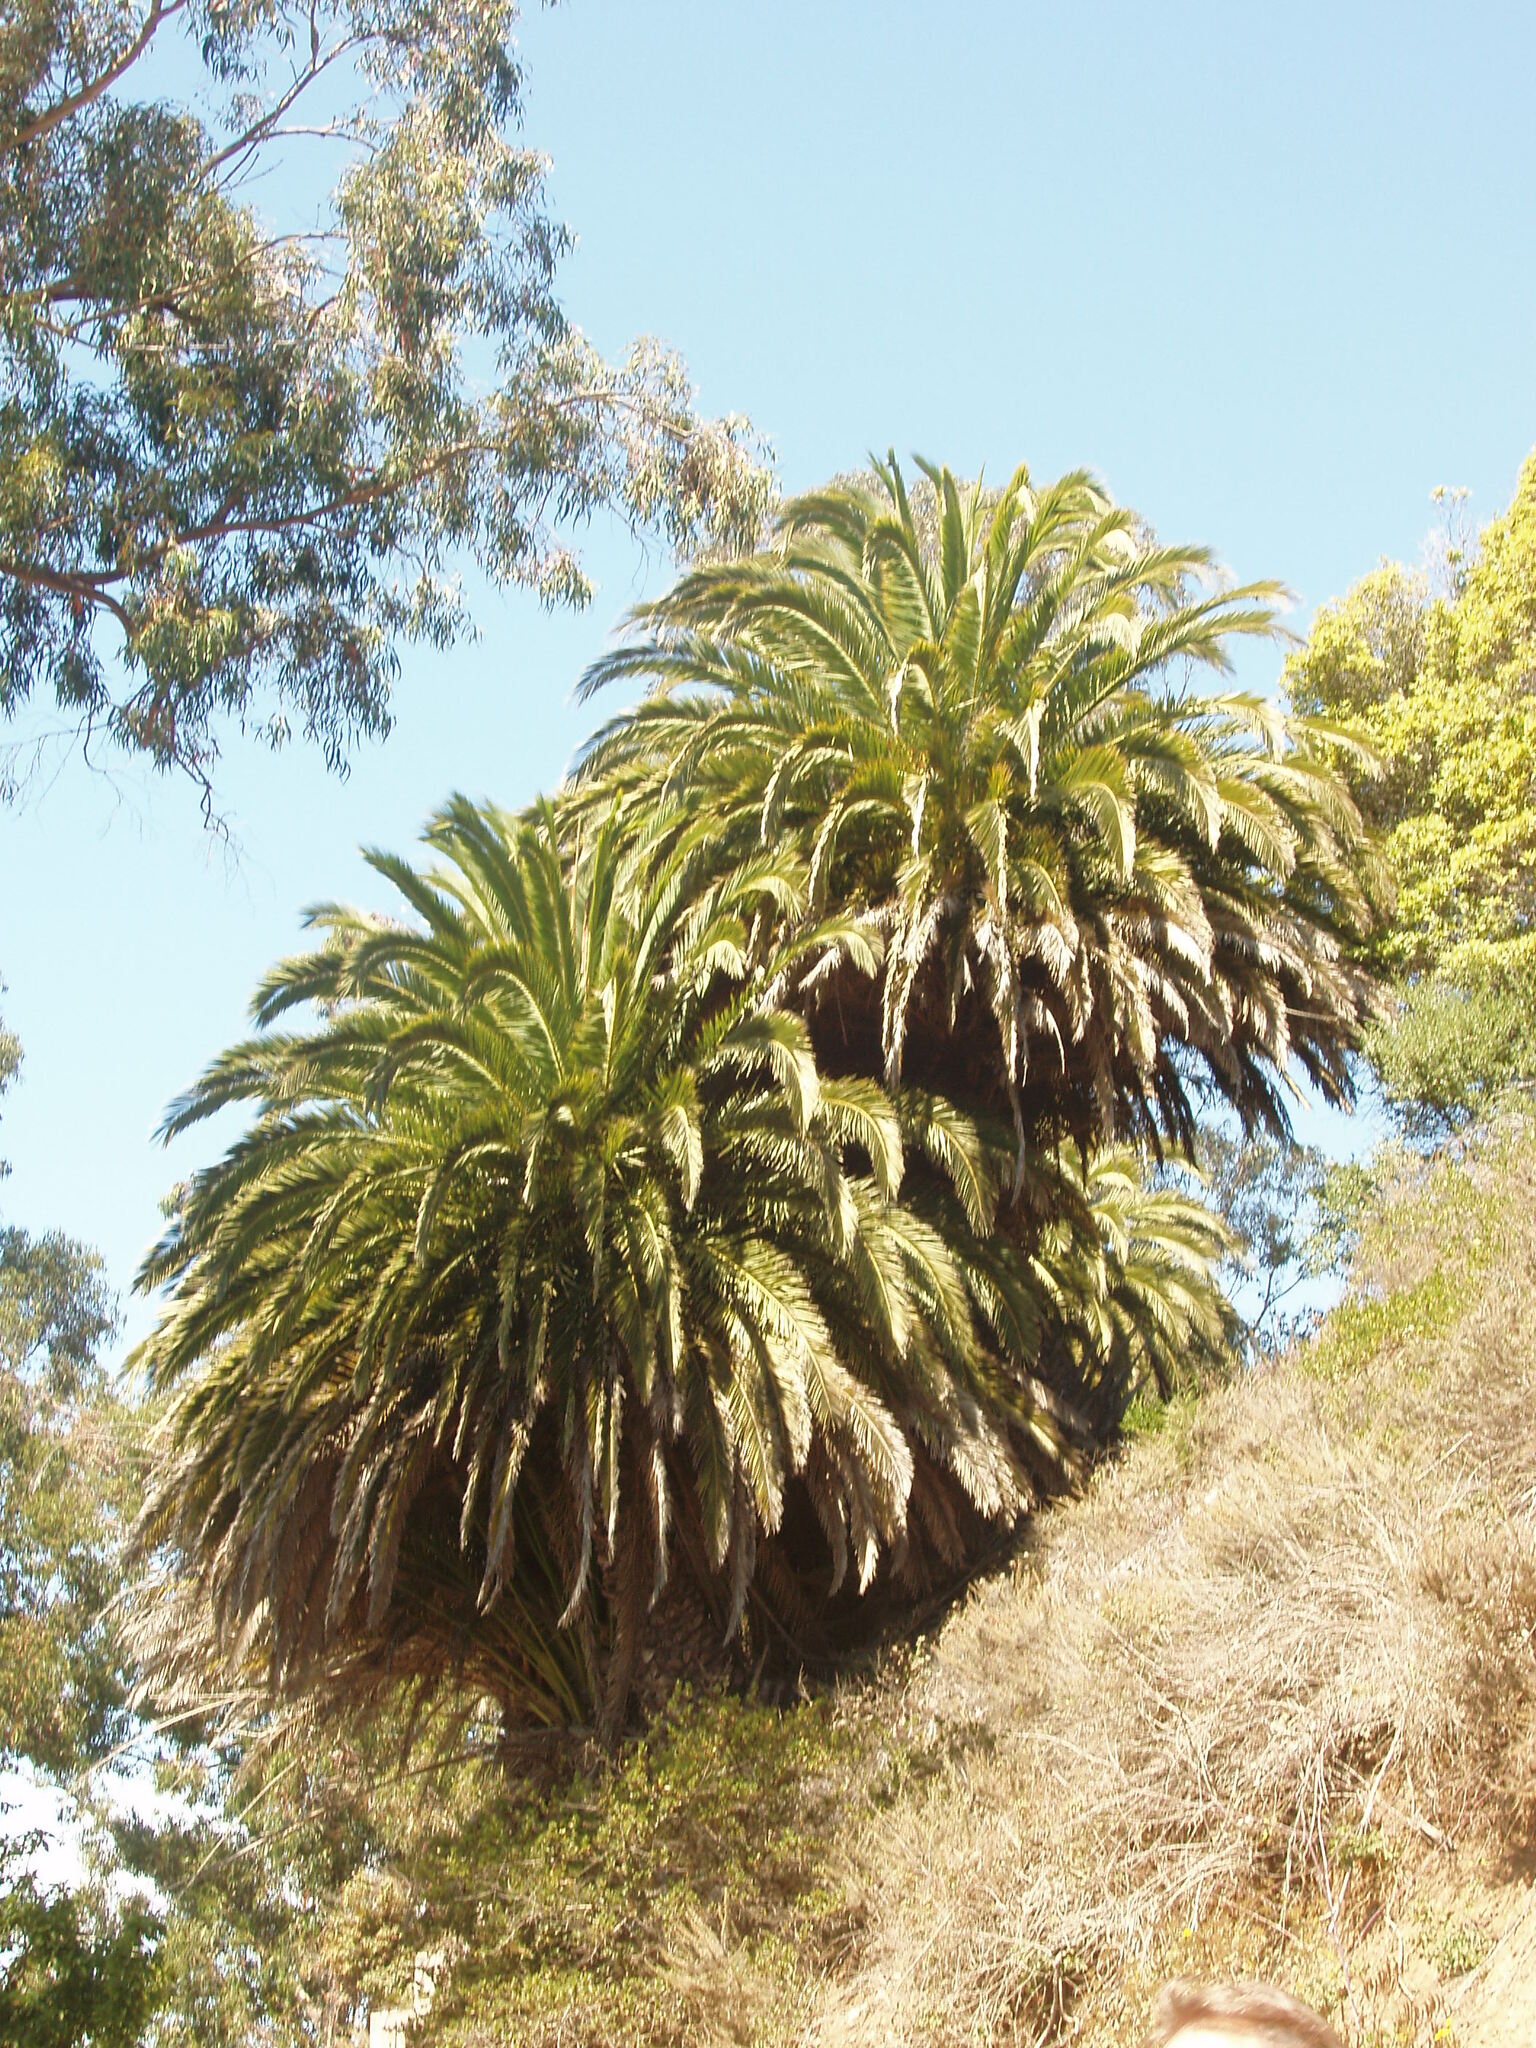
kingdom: Plantae
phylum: Tracheophyta
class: Liliopsida
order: Arecales
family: Arecaceae
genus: Phoenix
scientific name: Phoenix canariensis
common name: Canary island date palm
